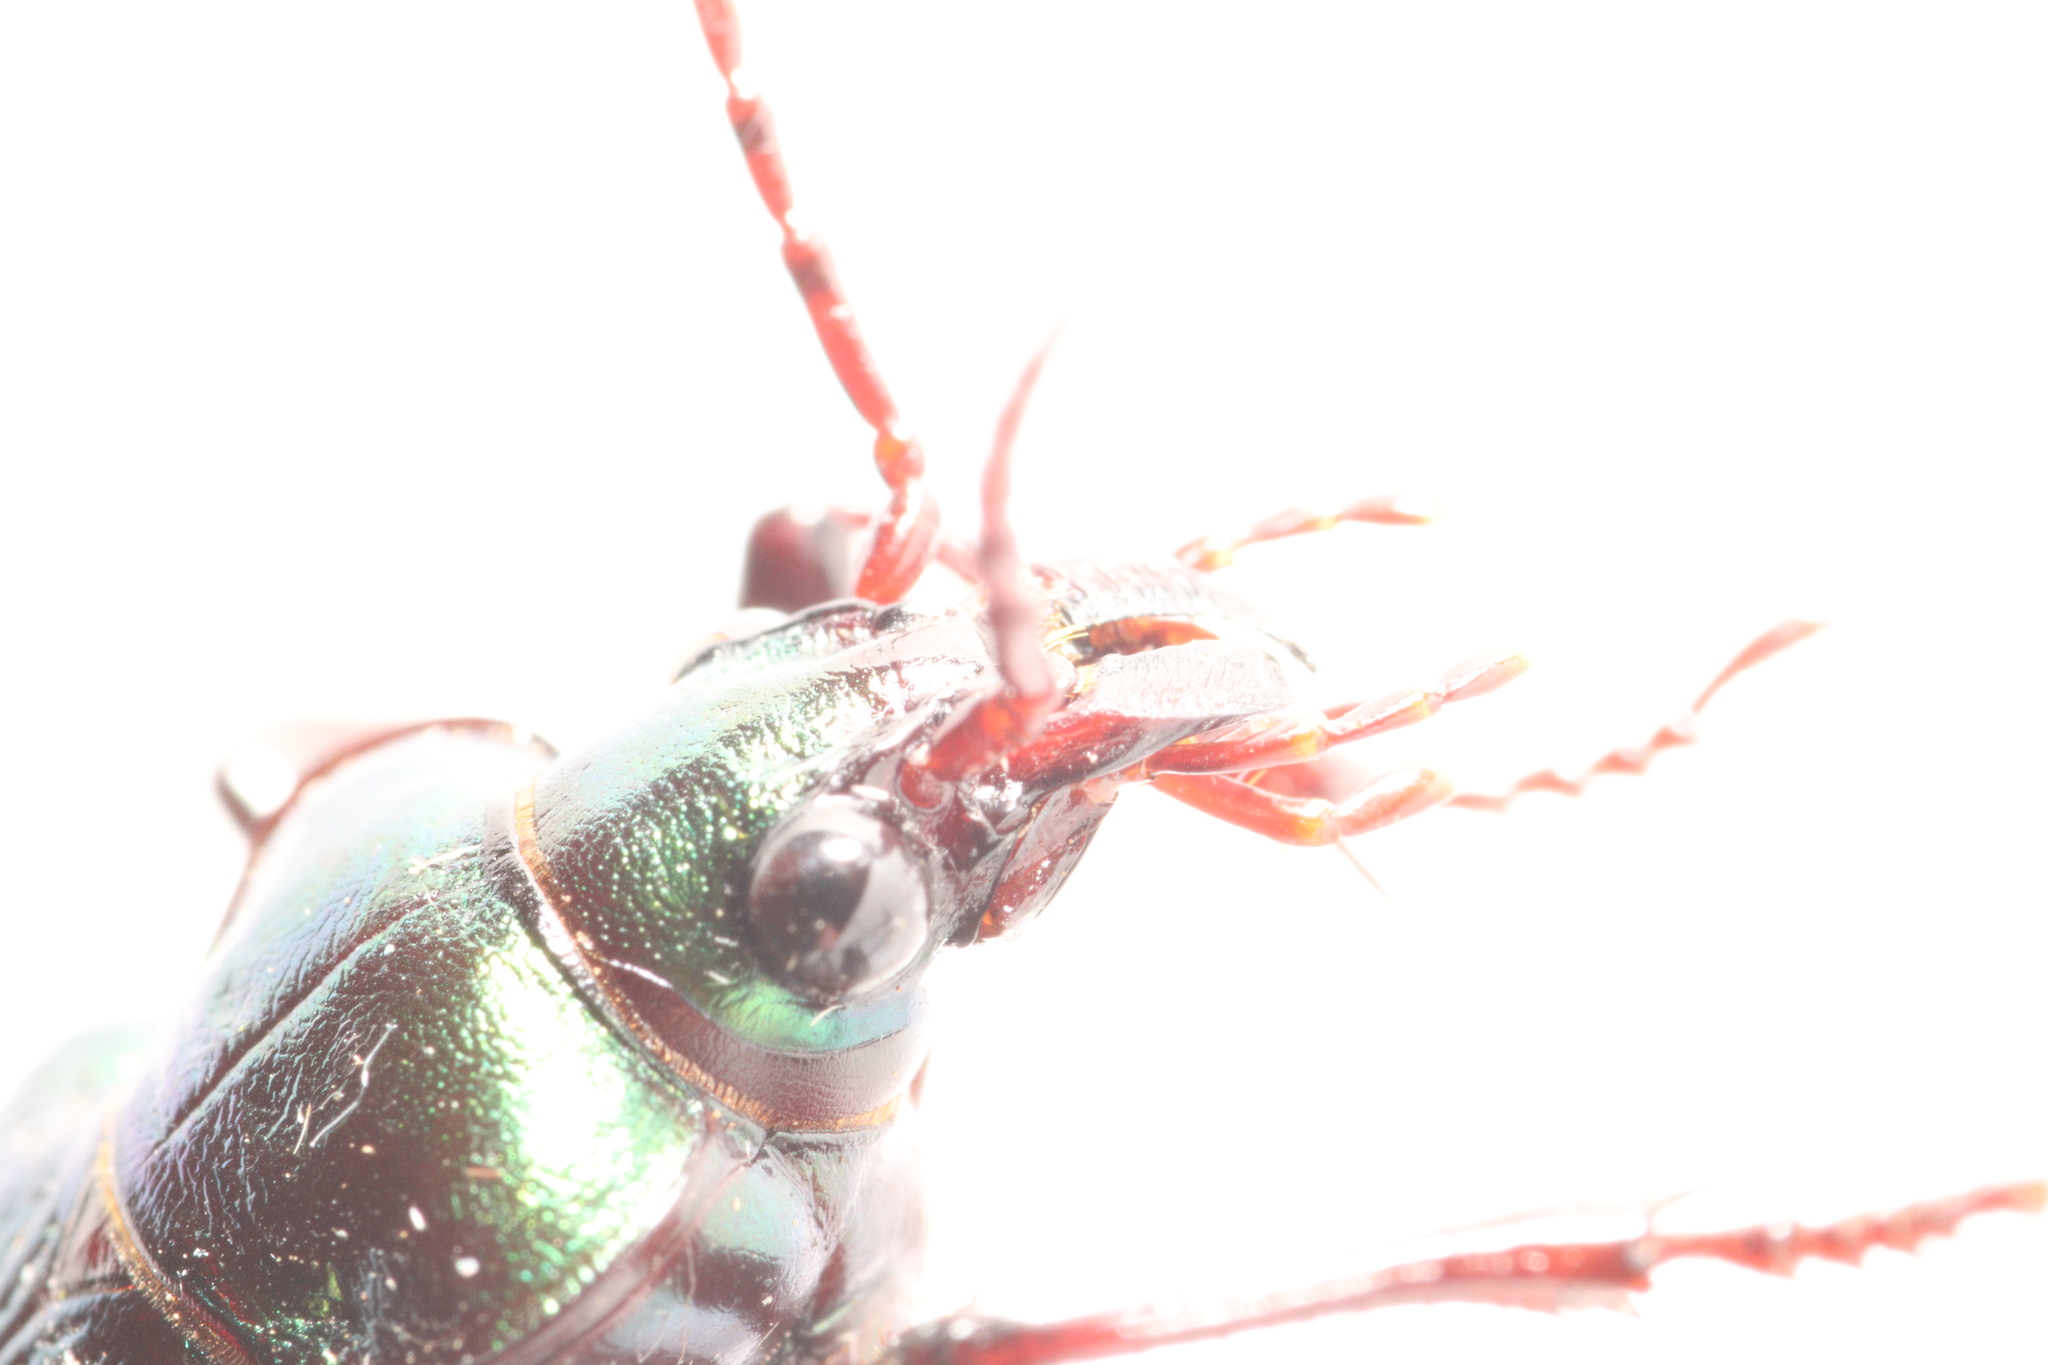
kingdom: Animalia
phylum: Arthropoda
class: Insecta
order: Coleoptera
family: Carabidae
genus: Calosoma
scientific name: Calosoma schayeri
